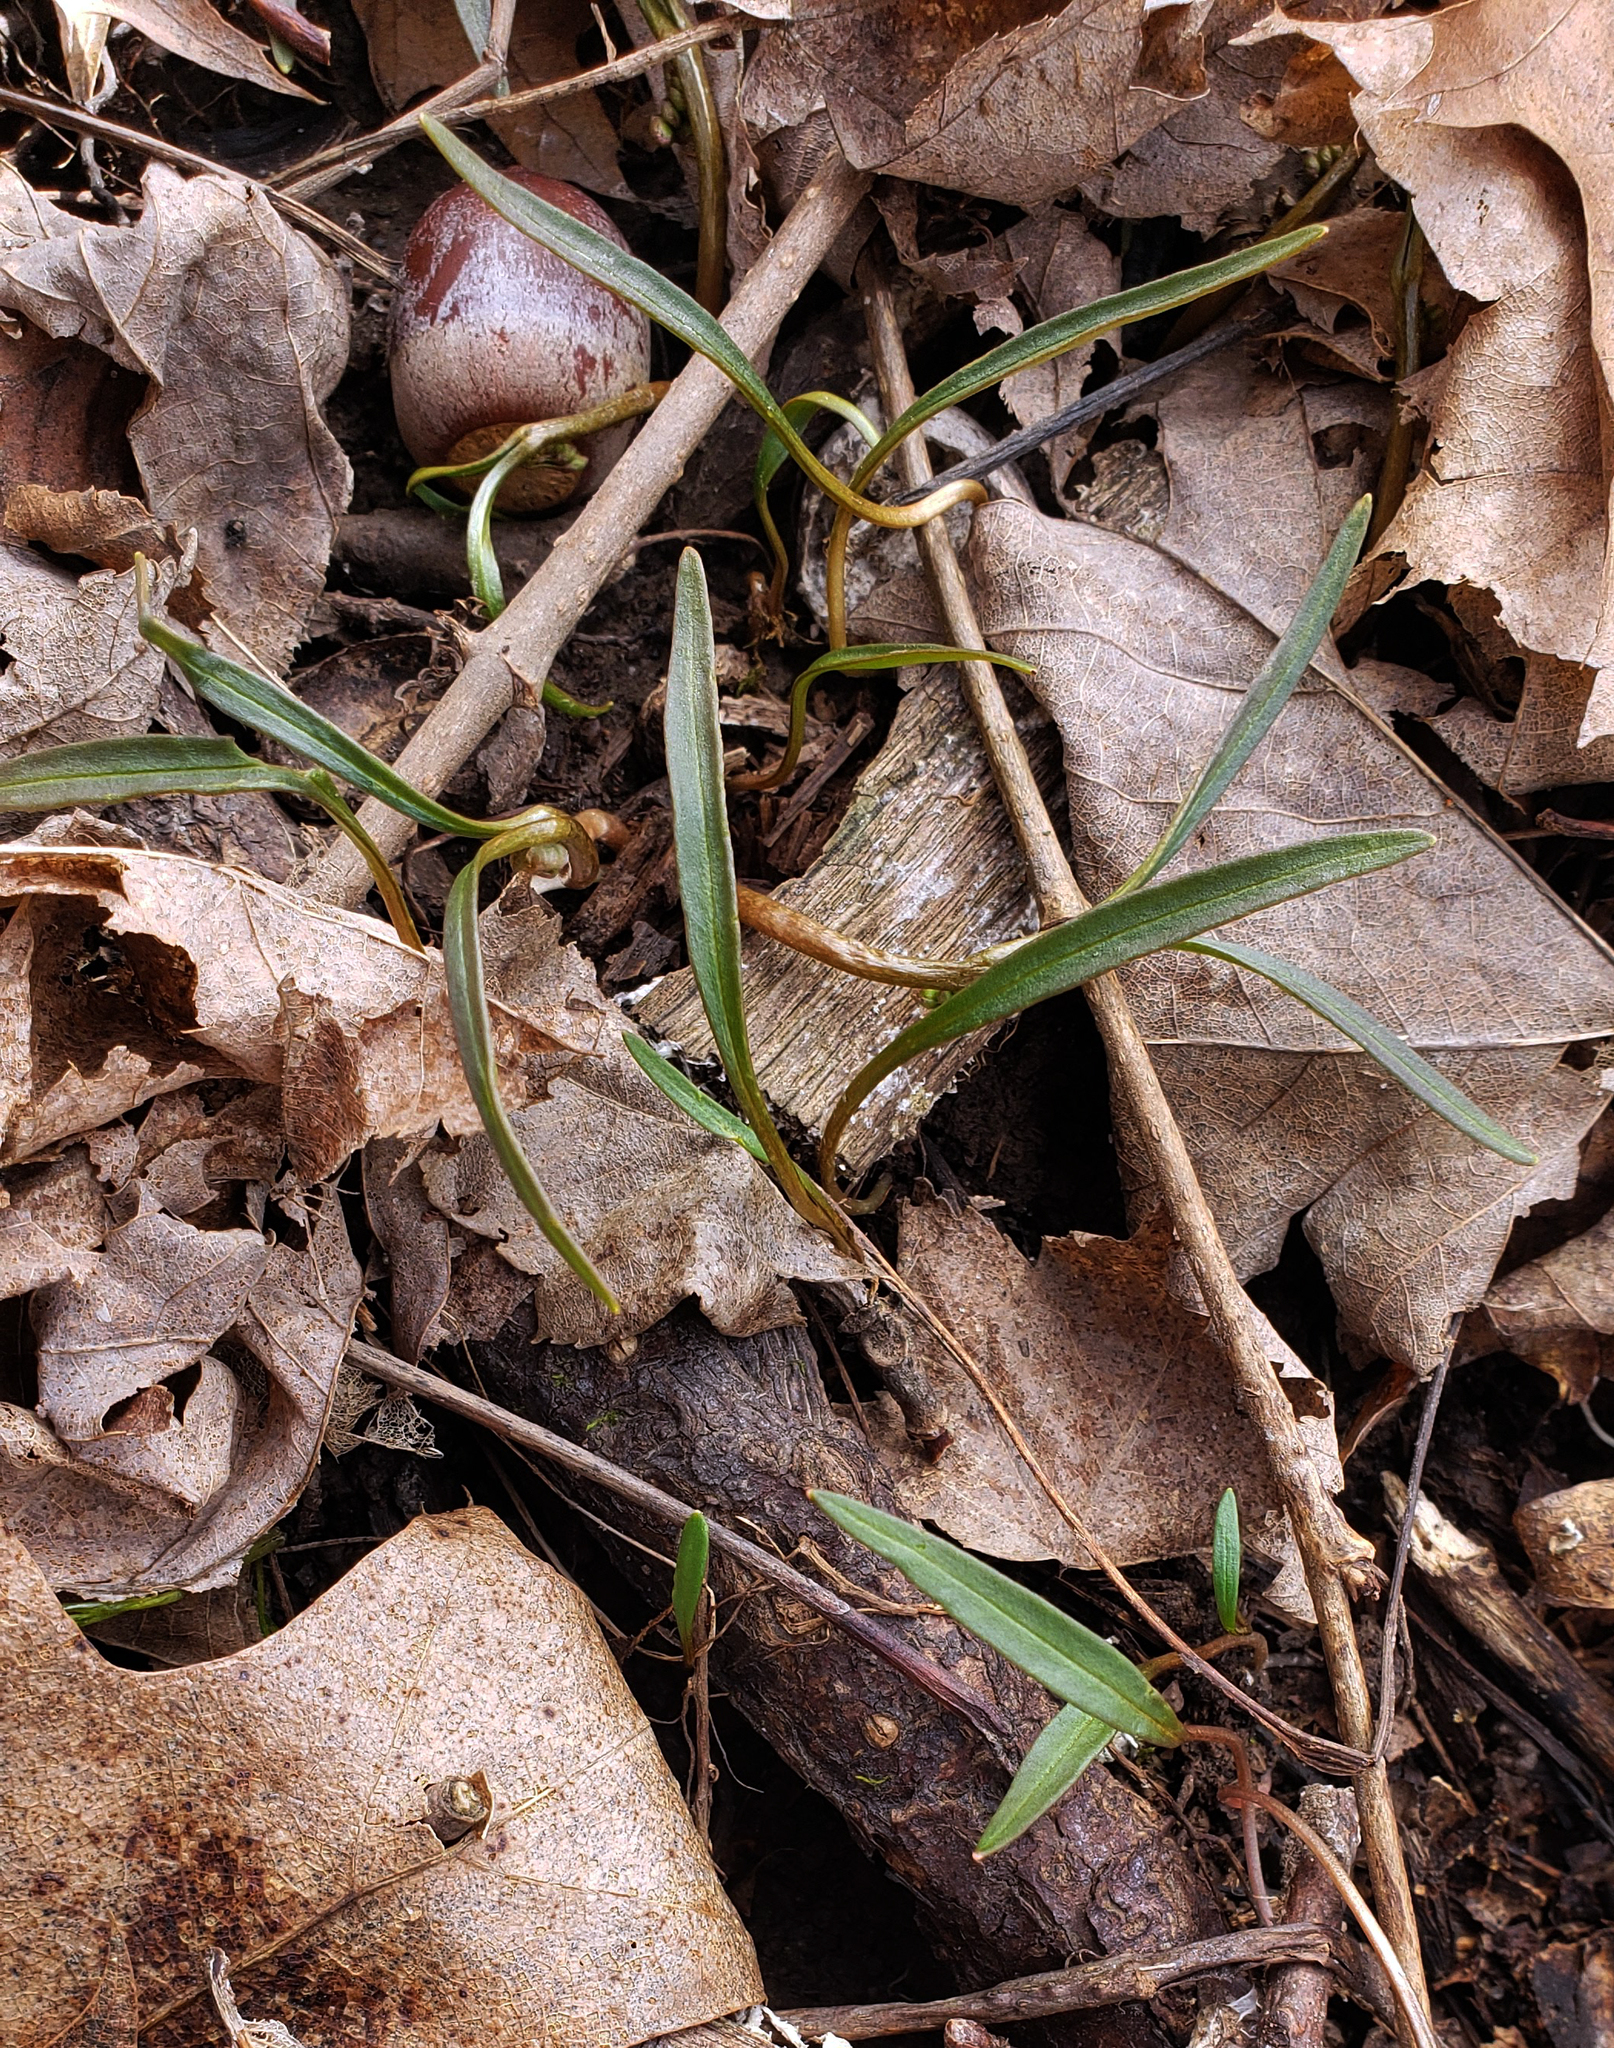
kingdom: Plantae
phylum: Tracheophyta
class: Magnoliopsida
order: Caryophyllales
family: Montiaceae
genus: Claytonia
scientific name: Claytonia virginica
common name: Virginia springbeauty
